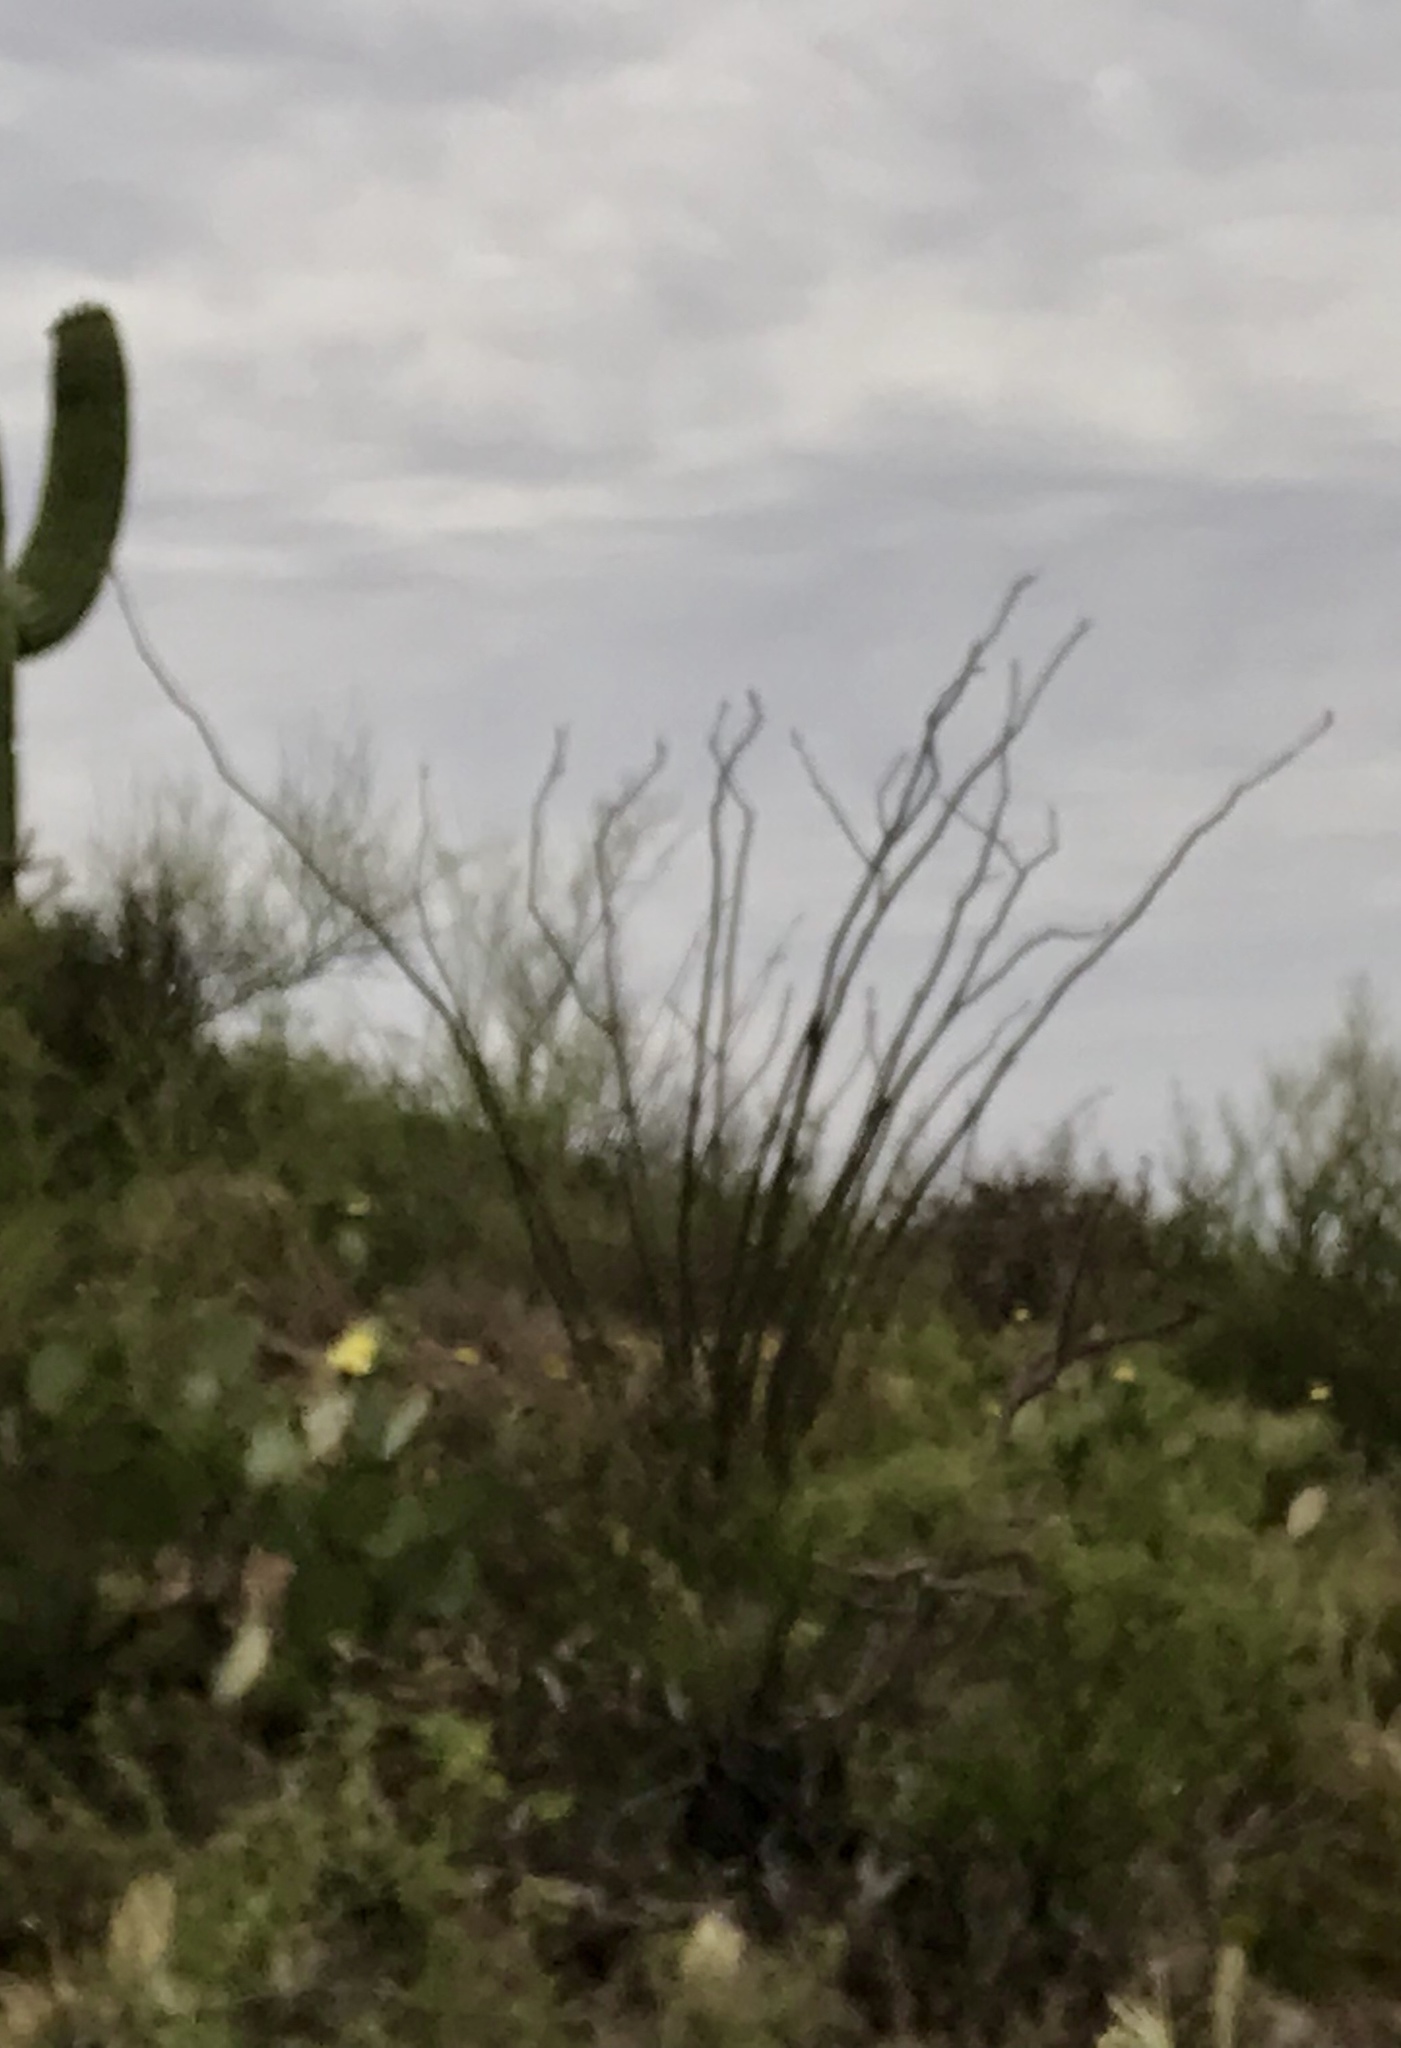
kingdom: Plantae
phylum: Tracheophyta
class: Magnoliopsida
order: Ericales
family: Fouquieriaceae
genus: Fouquieria
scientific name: Fouquieria splendens
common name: Vine-cactus
